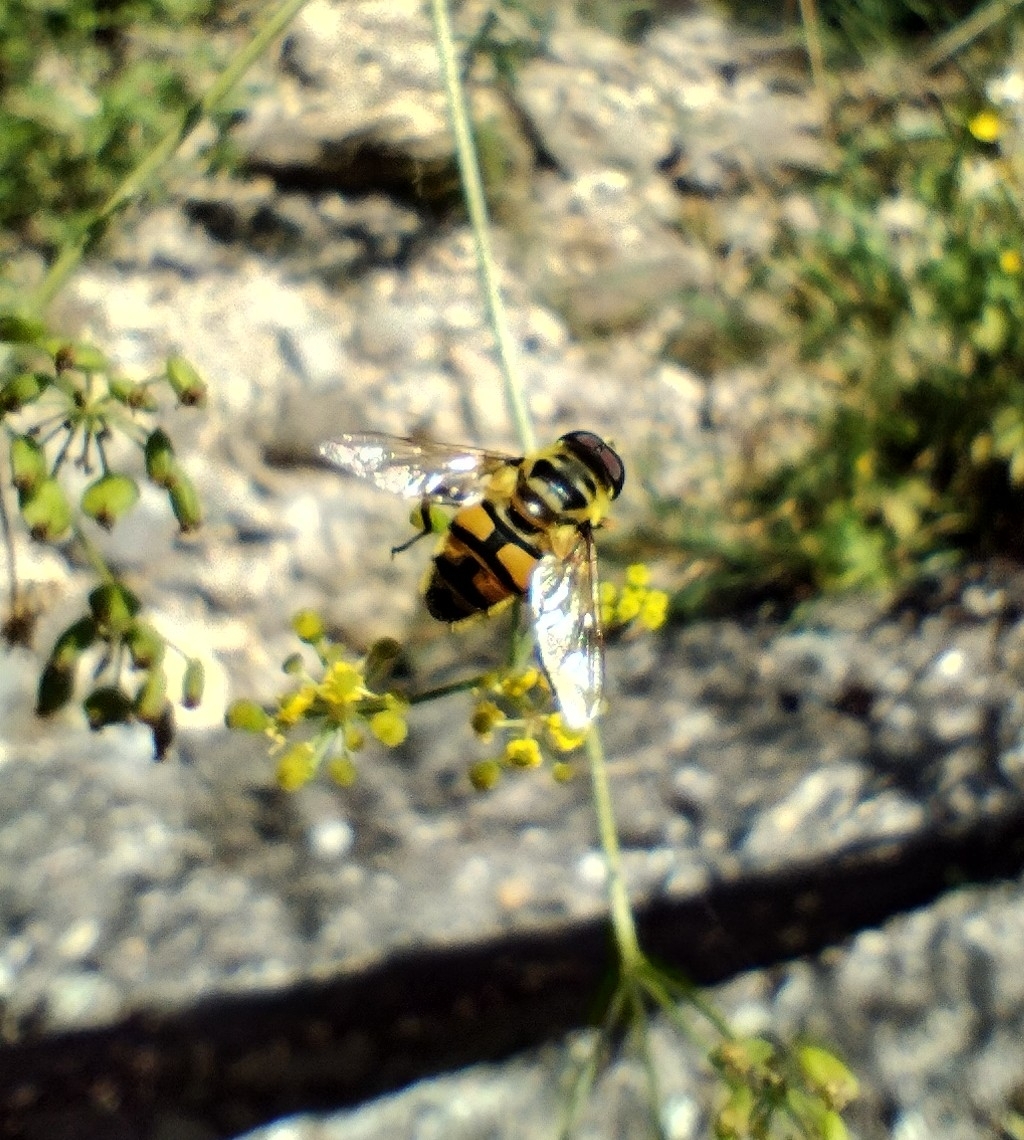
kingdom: Animalia
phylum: Arthropoda
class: Insecta
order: Diptera
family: Syrphidae
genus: Myathropa
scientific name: Myathropa florea
